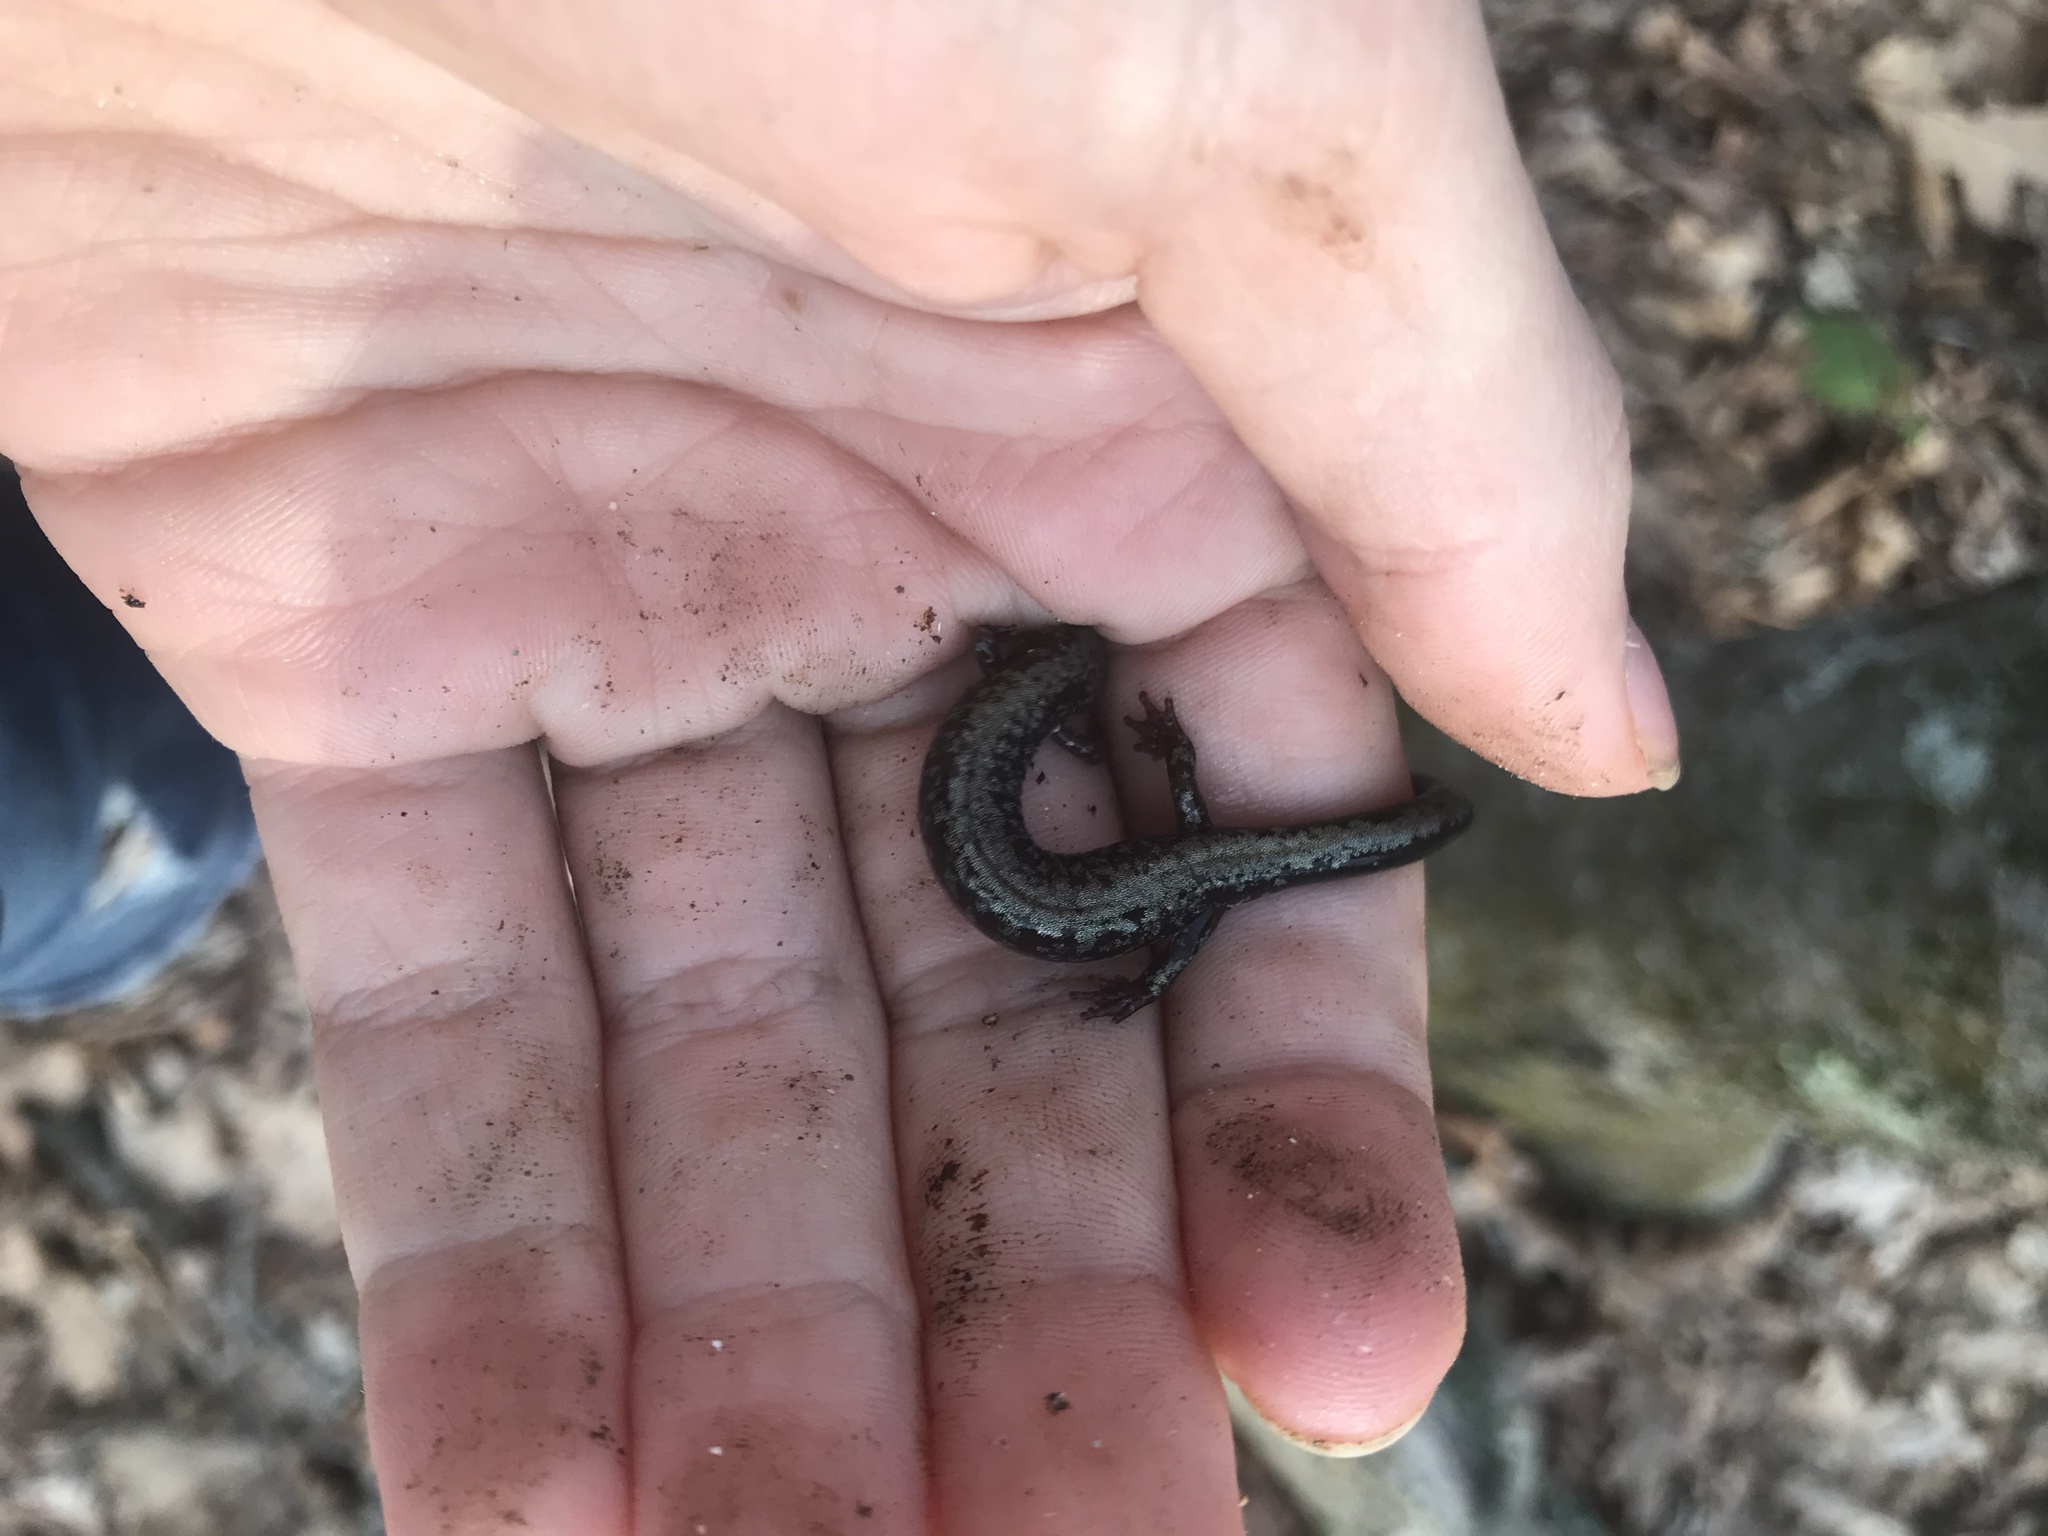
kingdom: Animalia
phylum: Chordata
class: Amphibia
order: Caudata
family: Plethodontidae
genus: Plethodon
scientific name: Plethodon hubrichti
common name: Peaks of otter salamander
